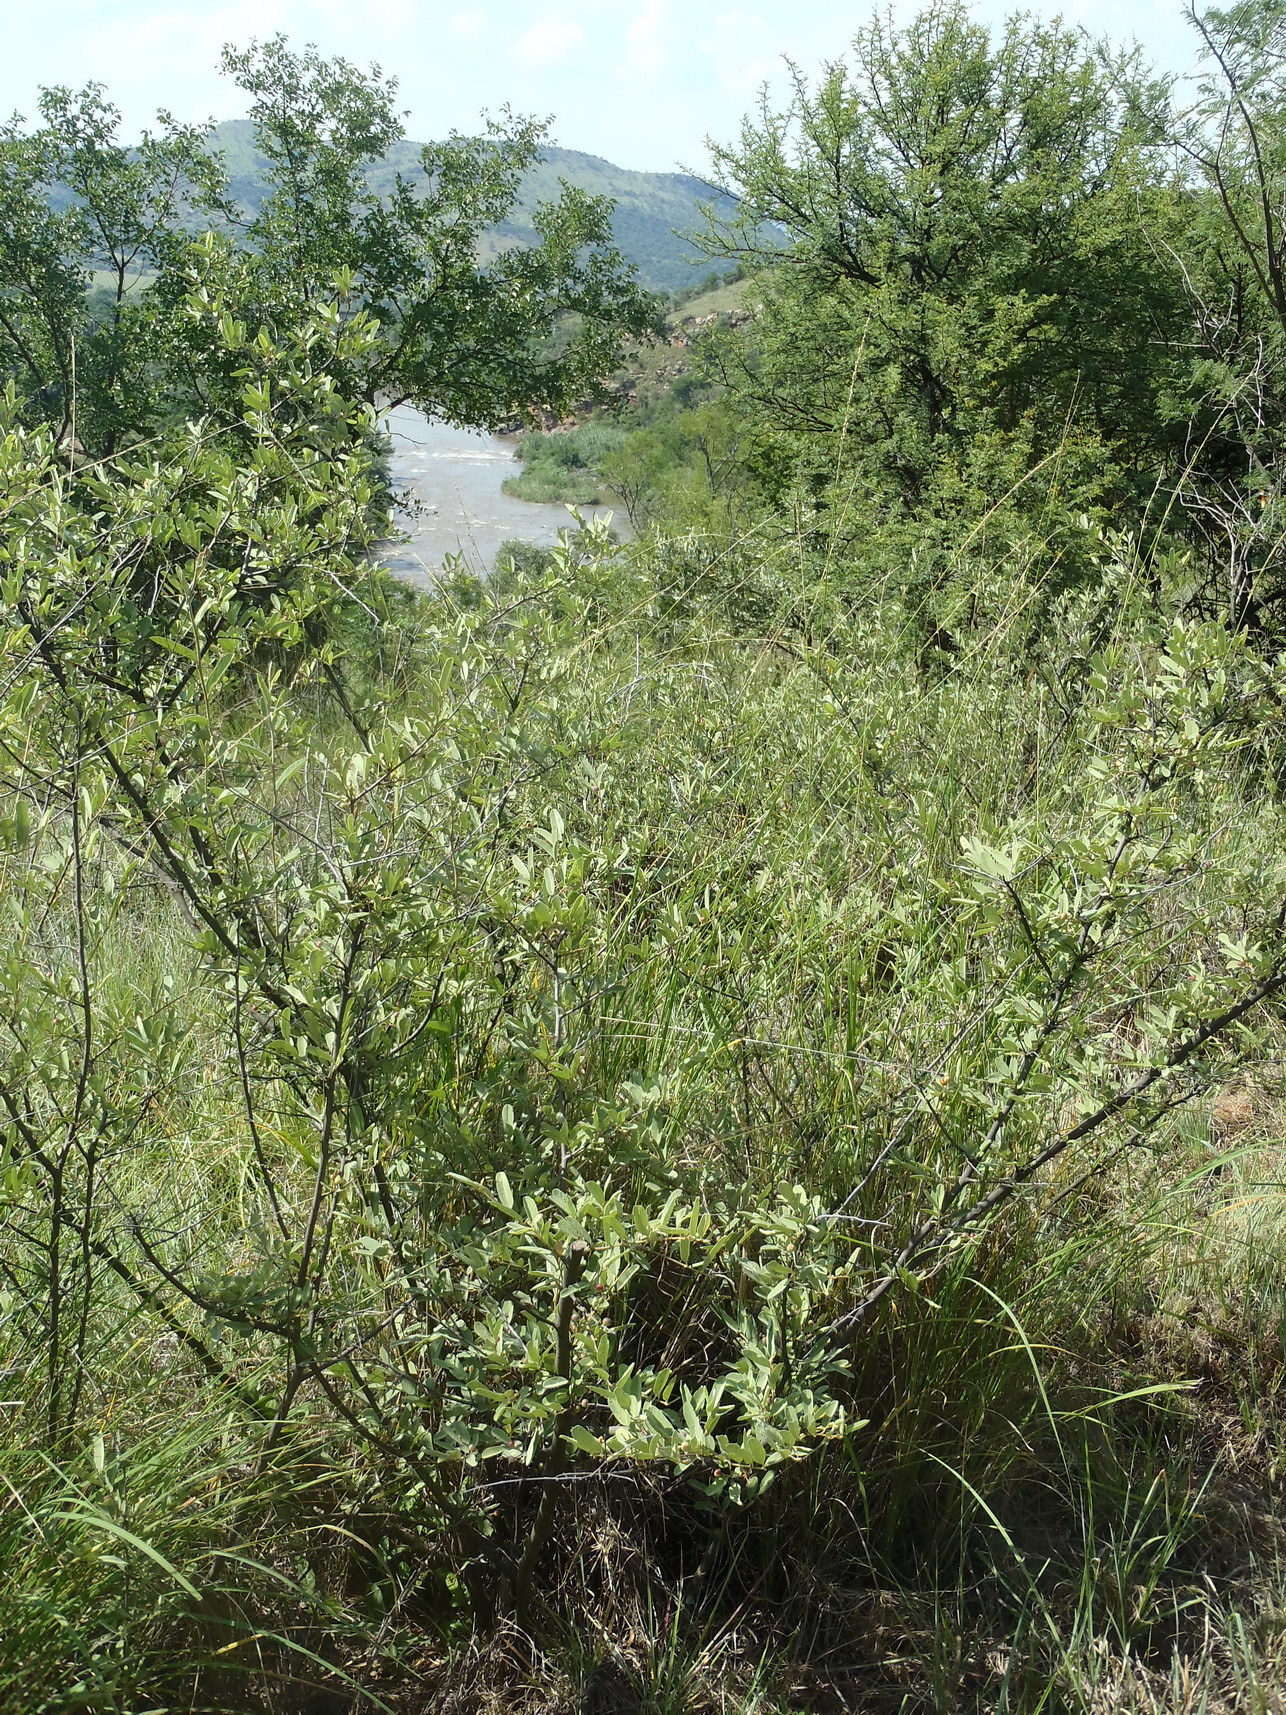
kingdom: Plantae
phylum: Tracheophyta
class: Magnoliopsida
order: Malvales
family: Malvaceae
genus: Grewia
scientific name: Grewia flava
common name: Brandy bush
